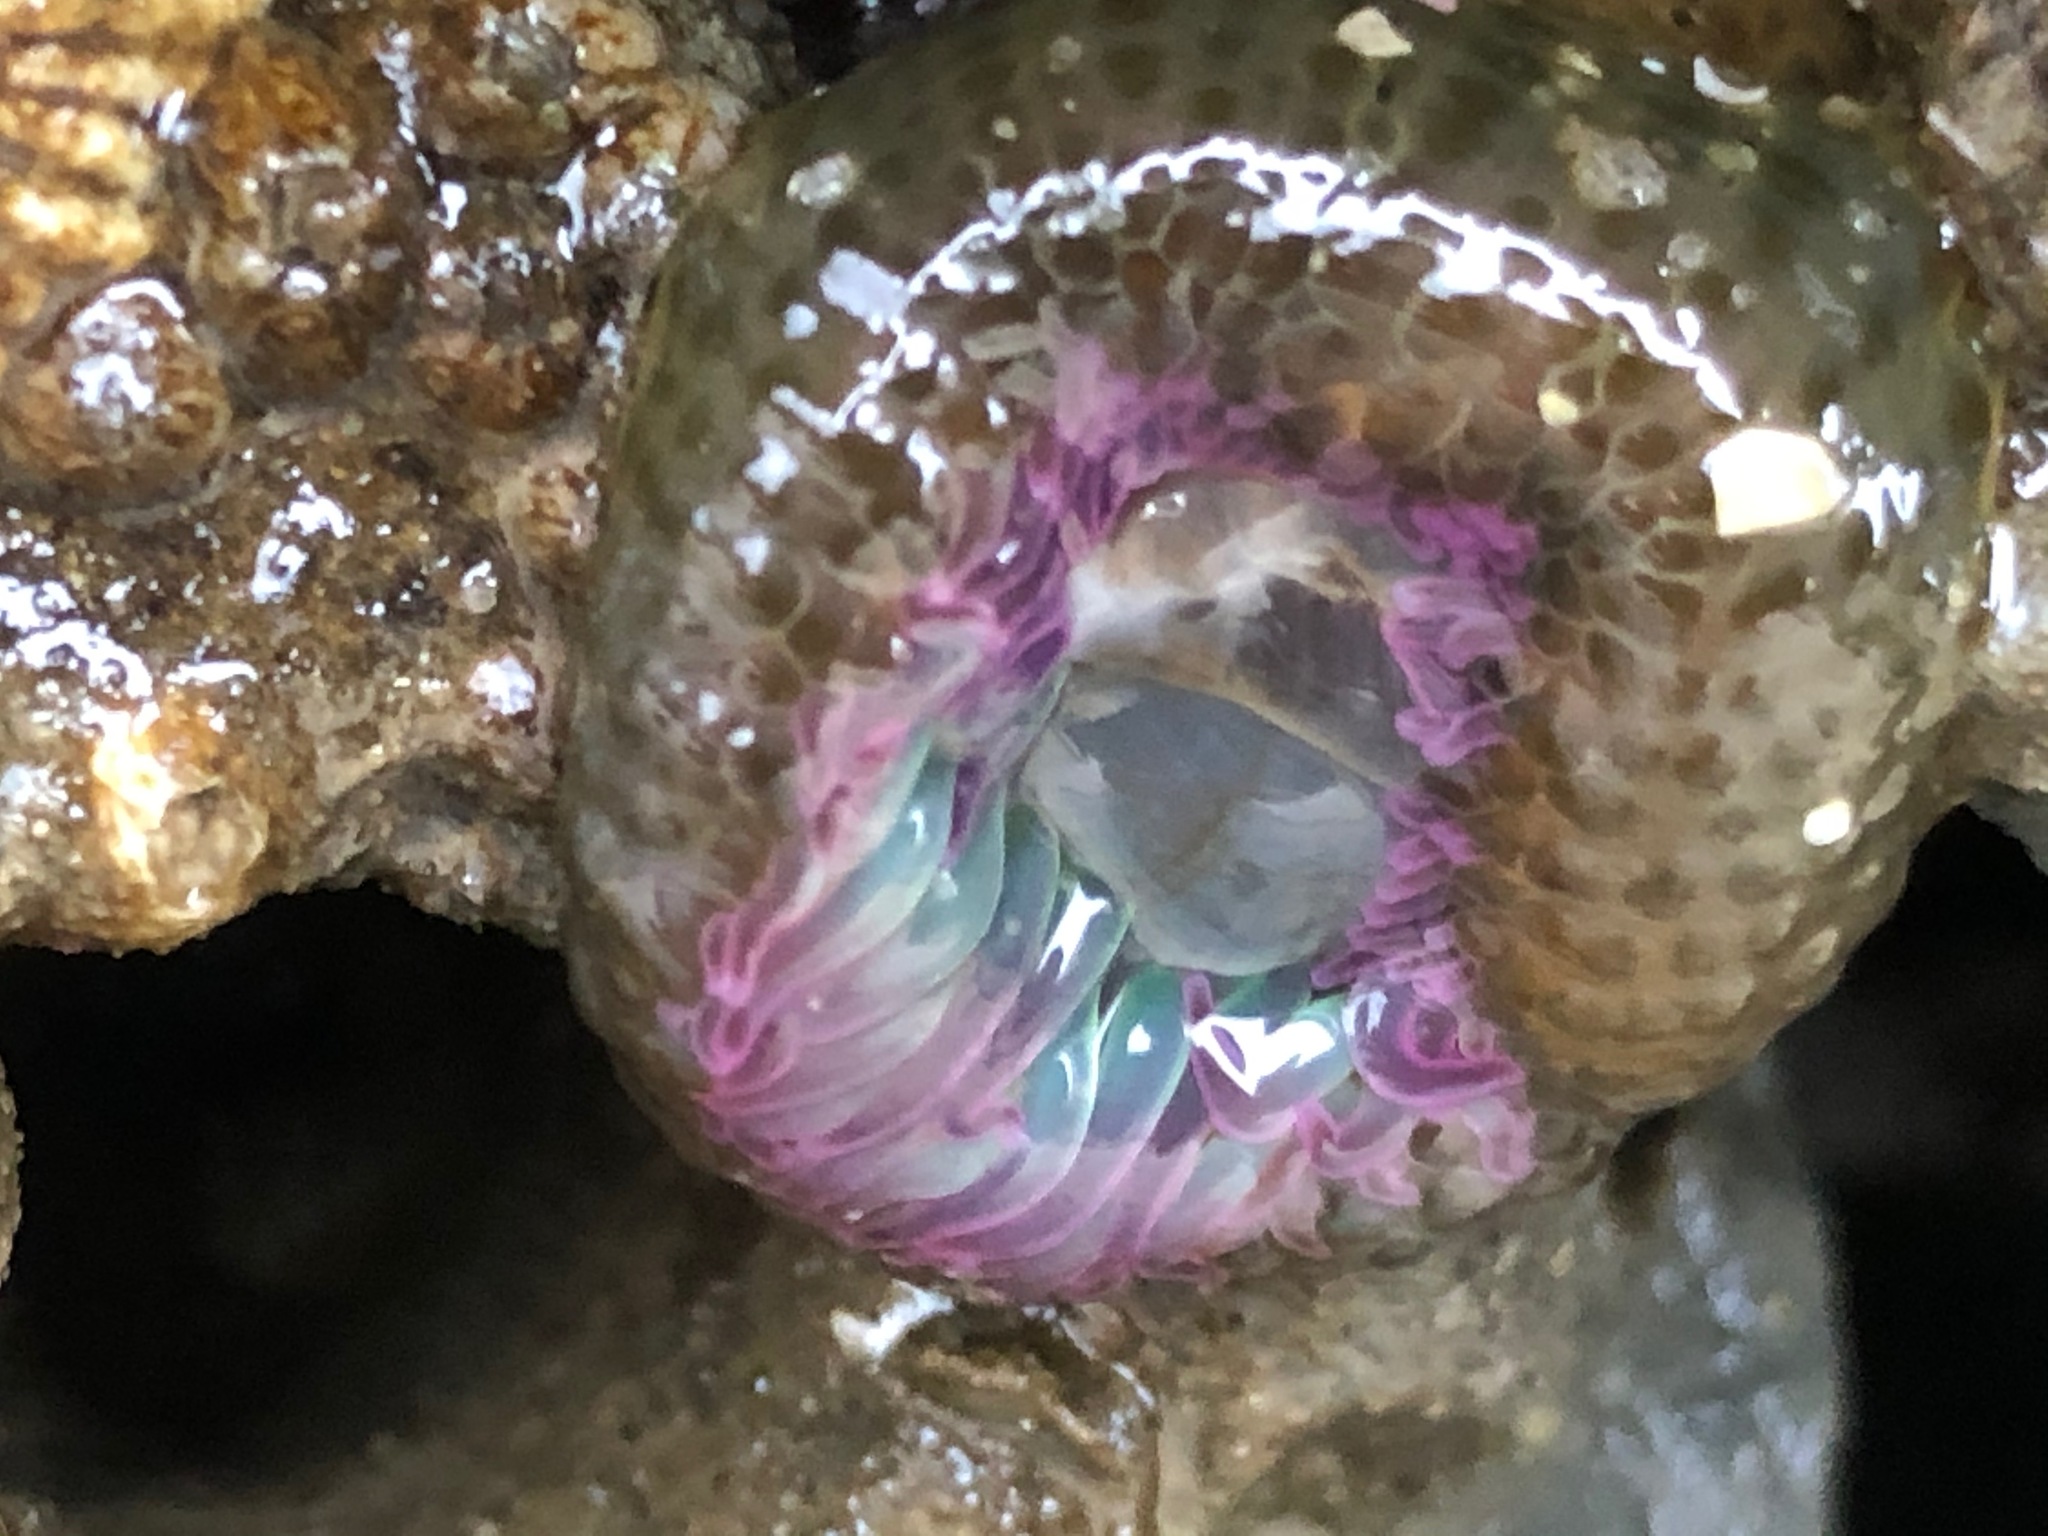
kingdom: Animalia
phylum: Cnidaria
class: Anthozoa
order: Actiniaria
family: Actiniidae
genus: Anthopleura
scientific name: Anthopleura elegantissima
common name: Clonal anemone
